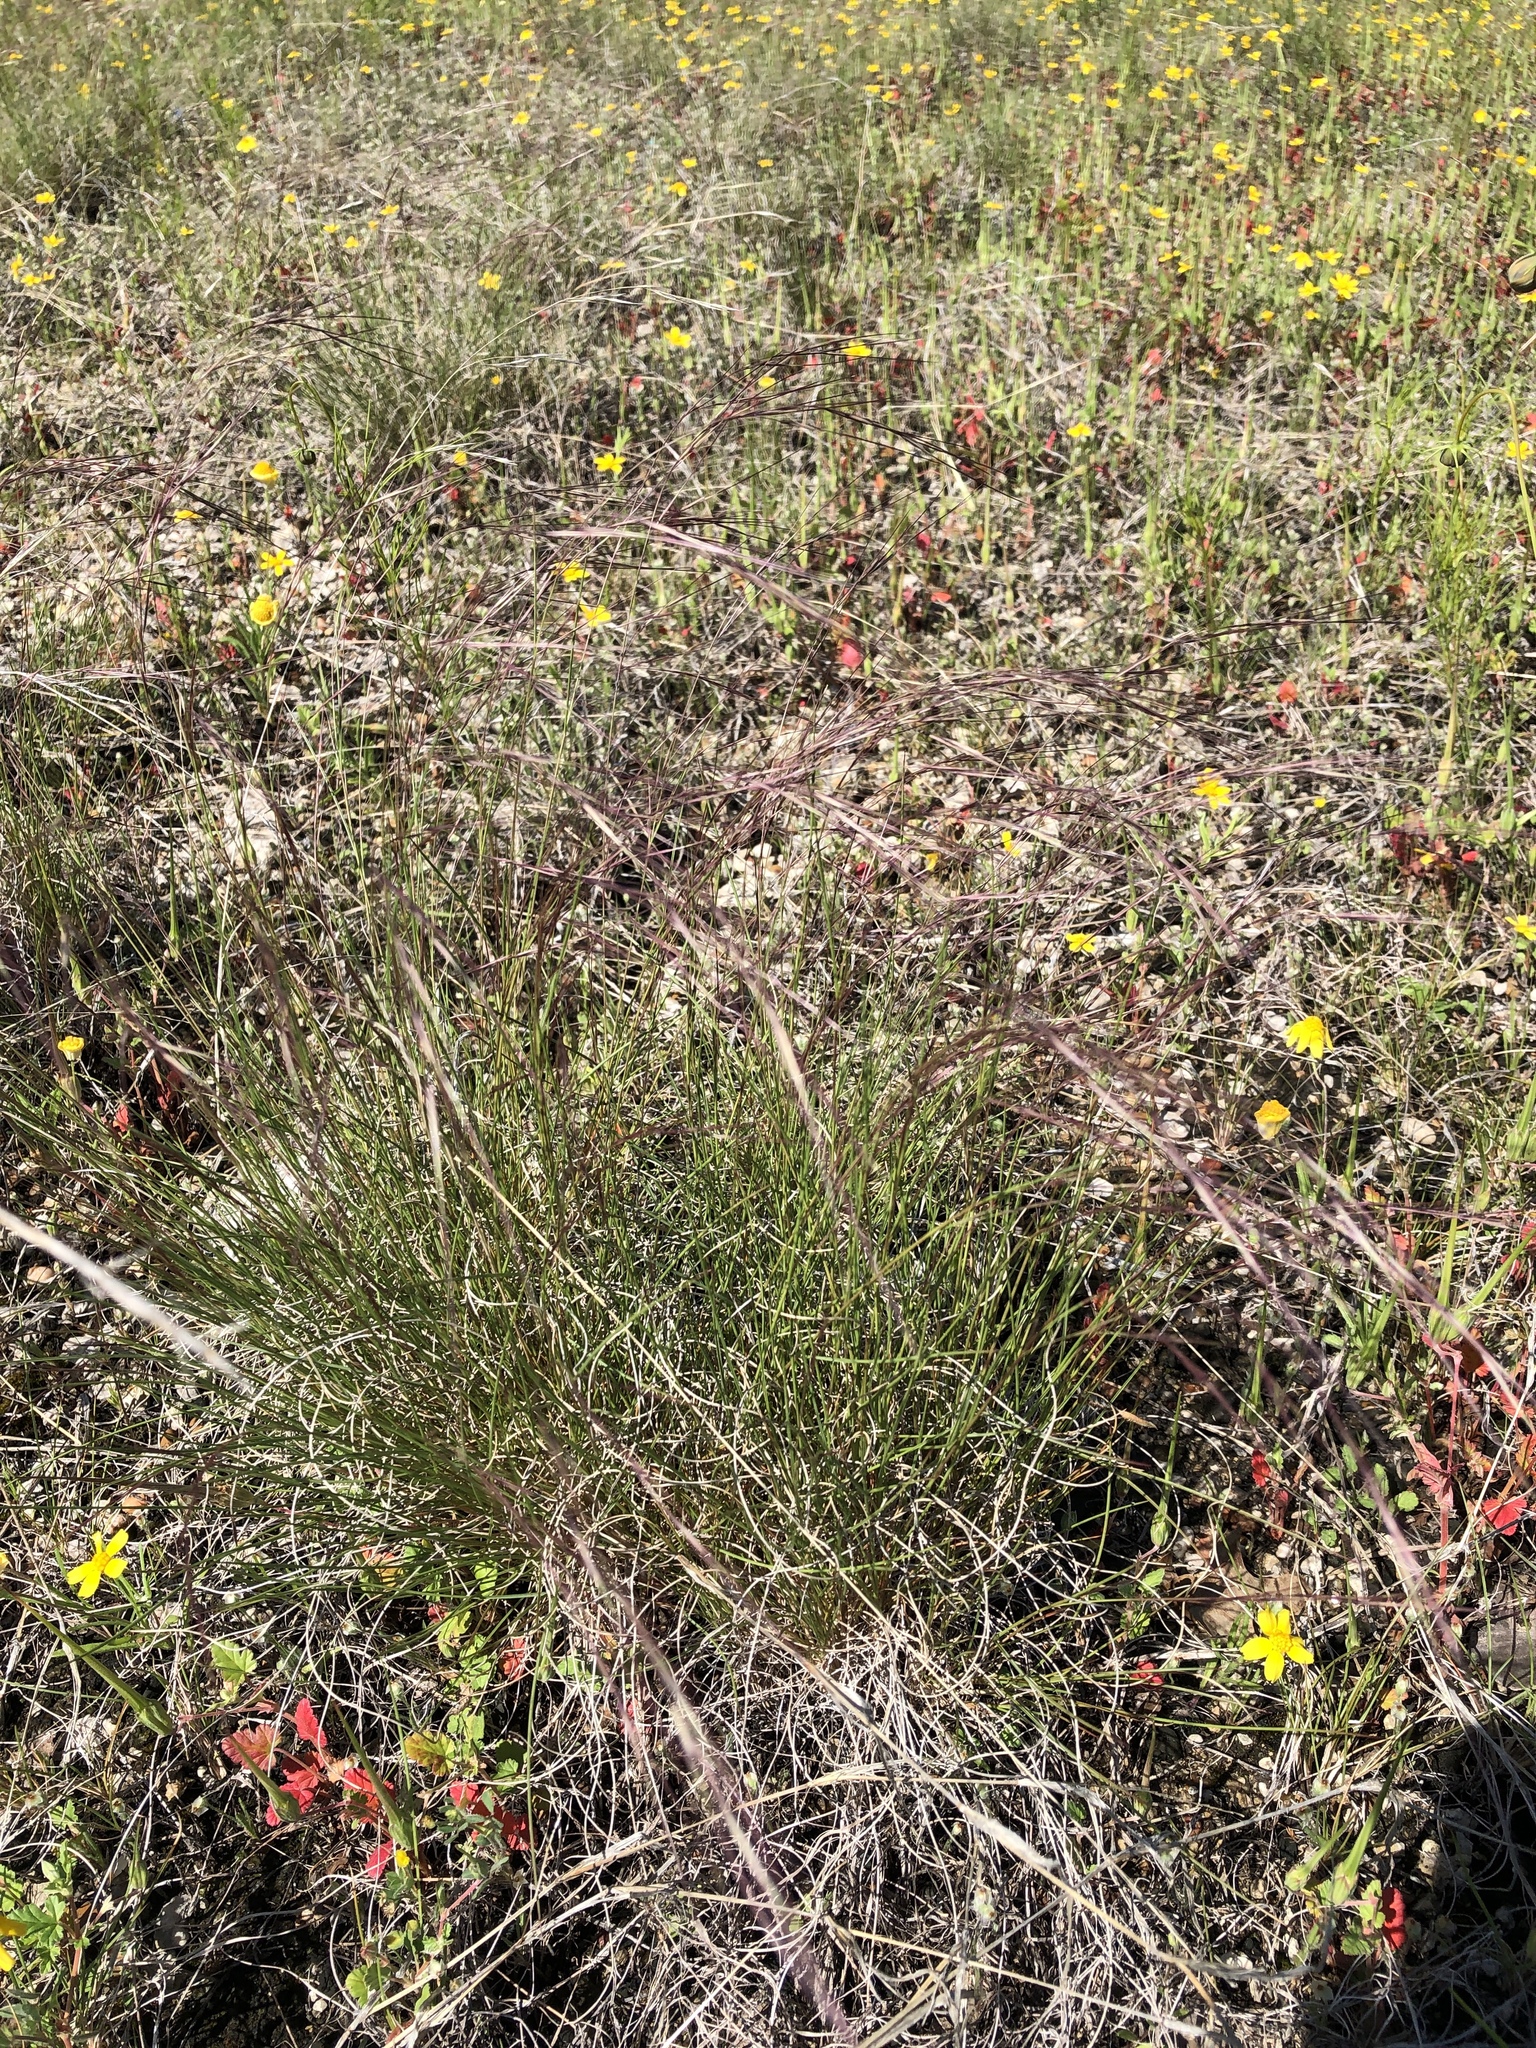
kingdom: Plantae
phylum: Tracheophyta
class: Liliopsida
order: Poales
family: Poaceae
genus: Aristida
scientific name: Aristida purpurea
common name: Purple threeawn
